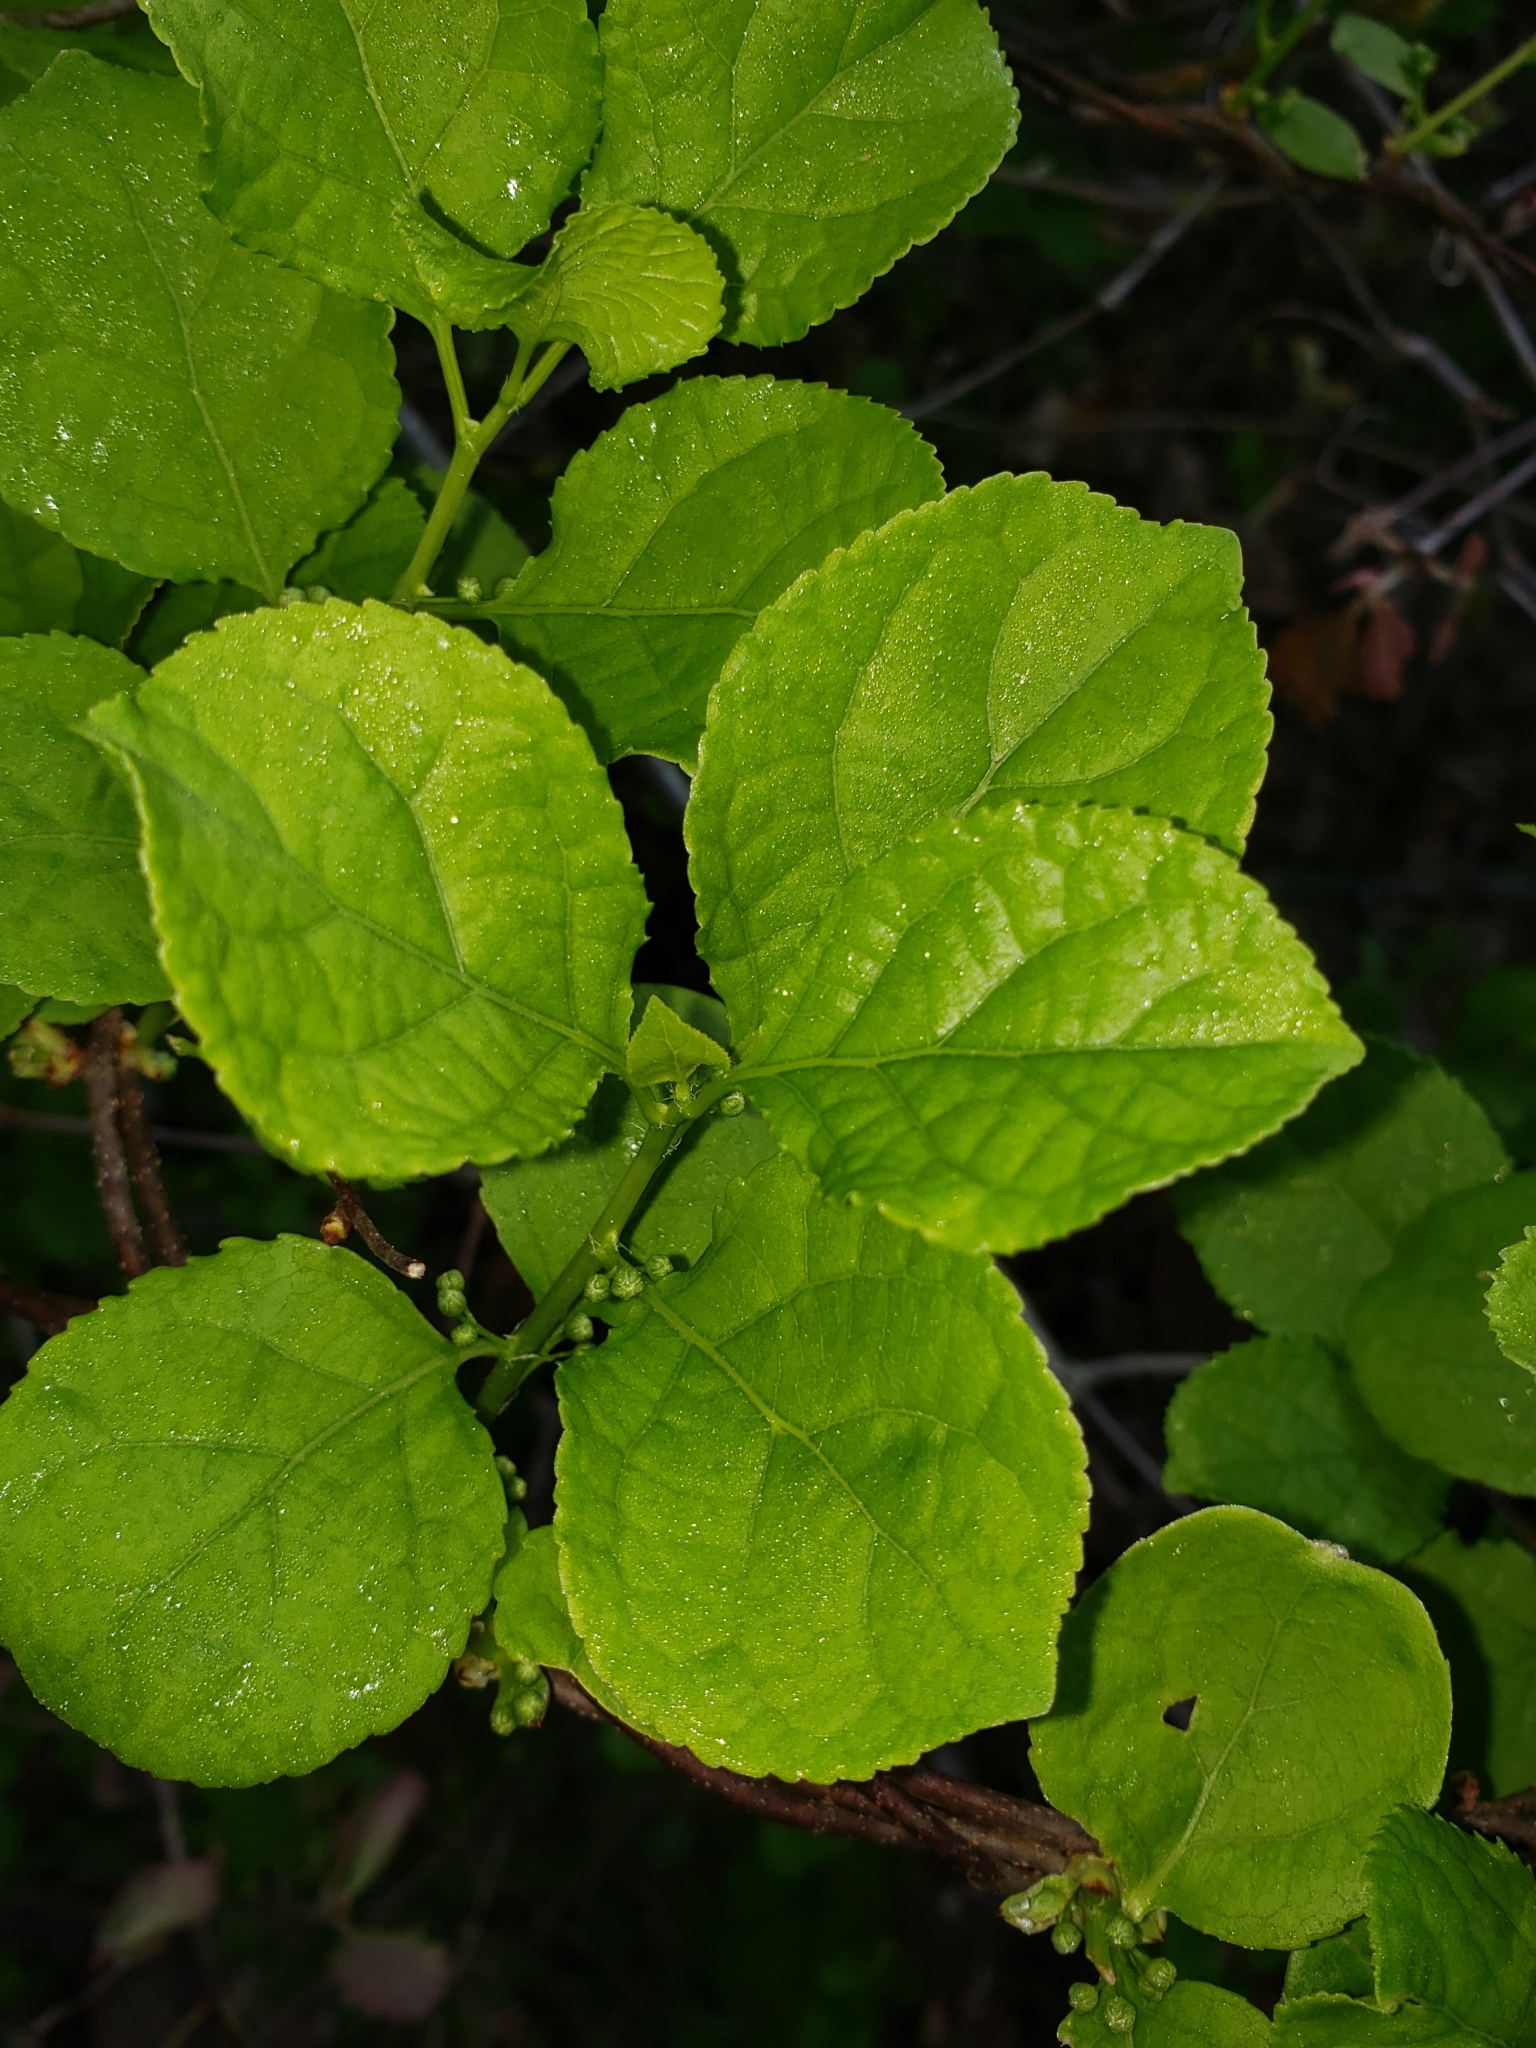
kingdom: Plantae
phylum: Tracheophyta
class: Magnoliopsida
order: Celastrales
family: Celastraceae
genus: Celastrus
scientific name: Celastrus orbiculatus
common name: Oriental bittersweet
